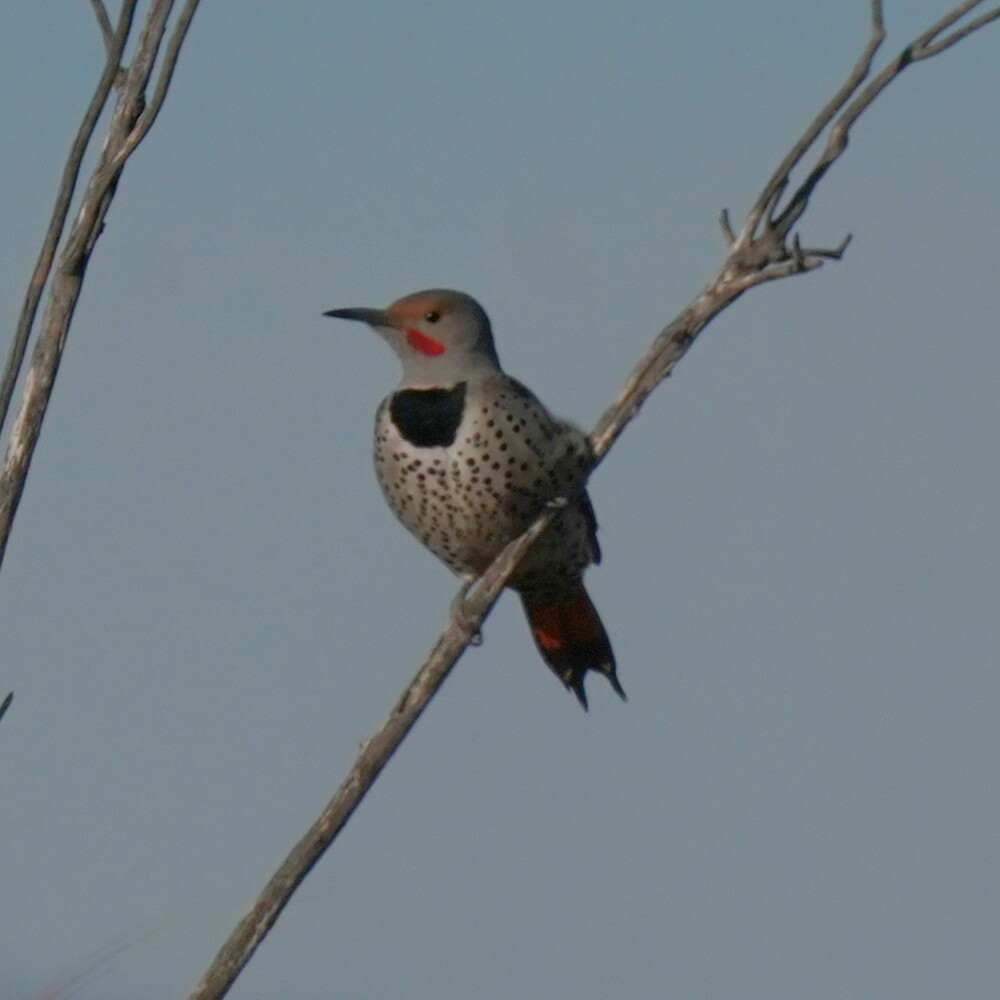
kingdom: Animalia
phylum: Chordata
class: Aves
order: Piciformes
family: Picidae
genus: Colaptes
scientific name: Colaptes auratus
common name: Northern flicker
